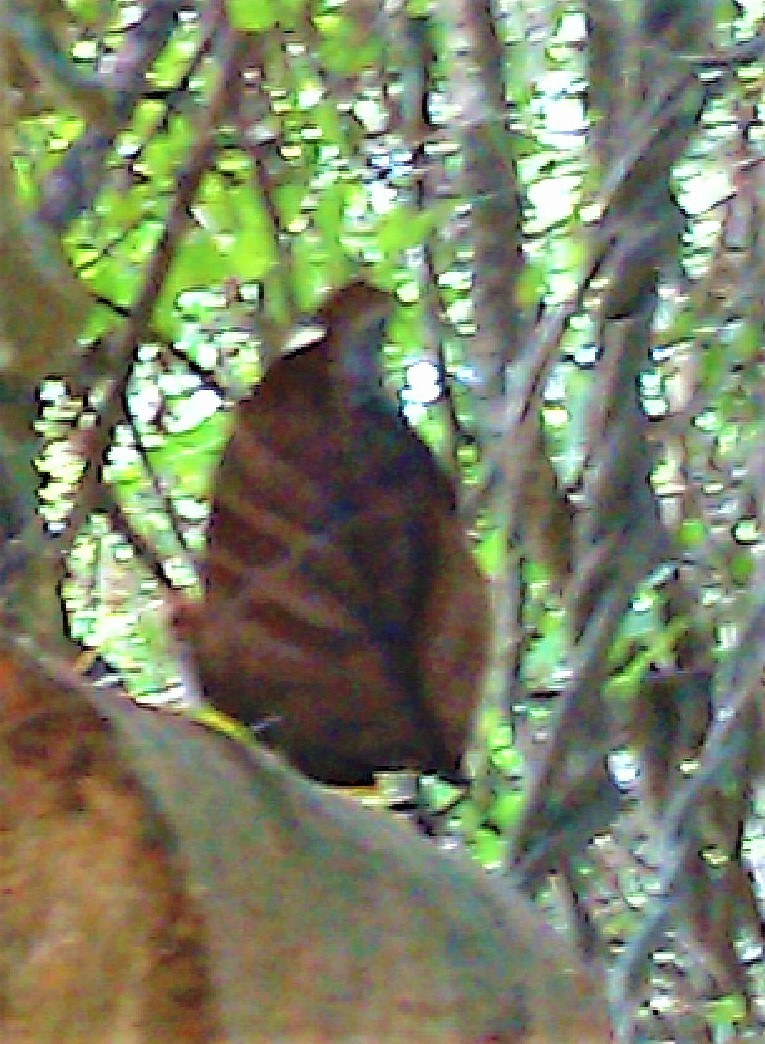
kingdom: Animalia
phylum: Arthropoda
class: Insecta
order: Lepidoptera
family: Nymphalidae
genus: Historis
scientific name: Historis odius
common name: Orion cecropian
